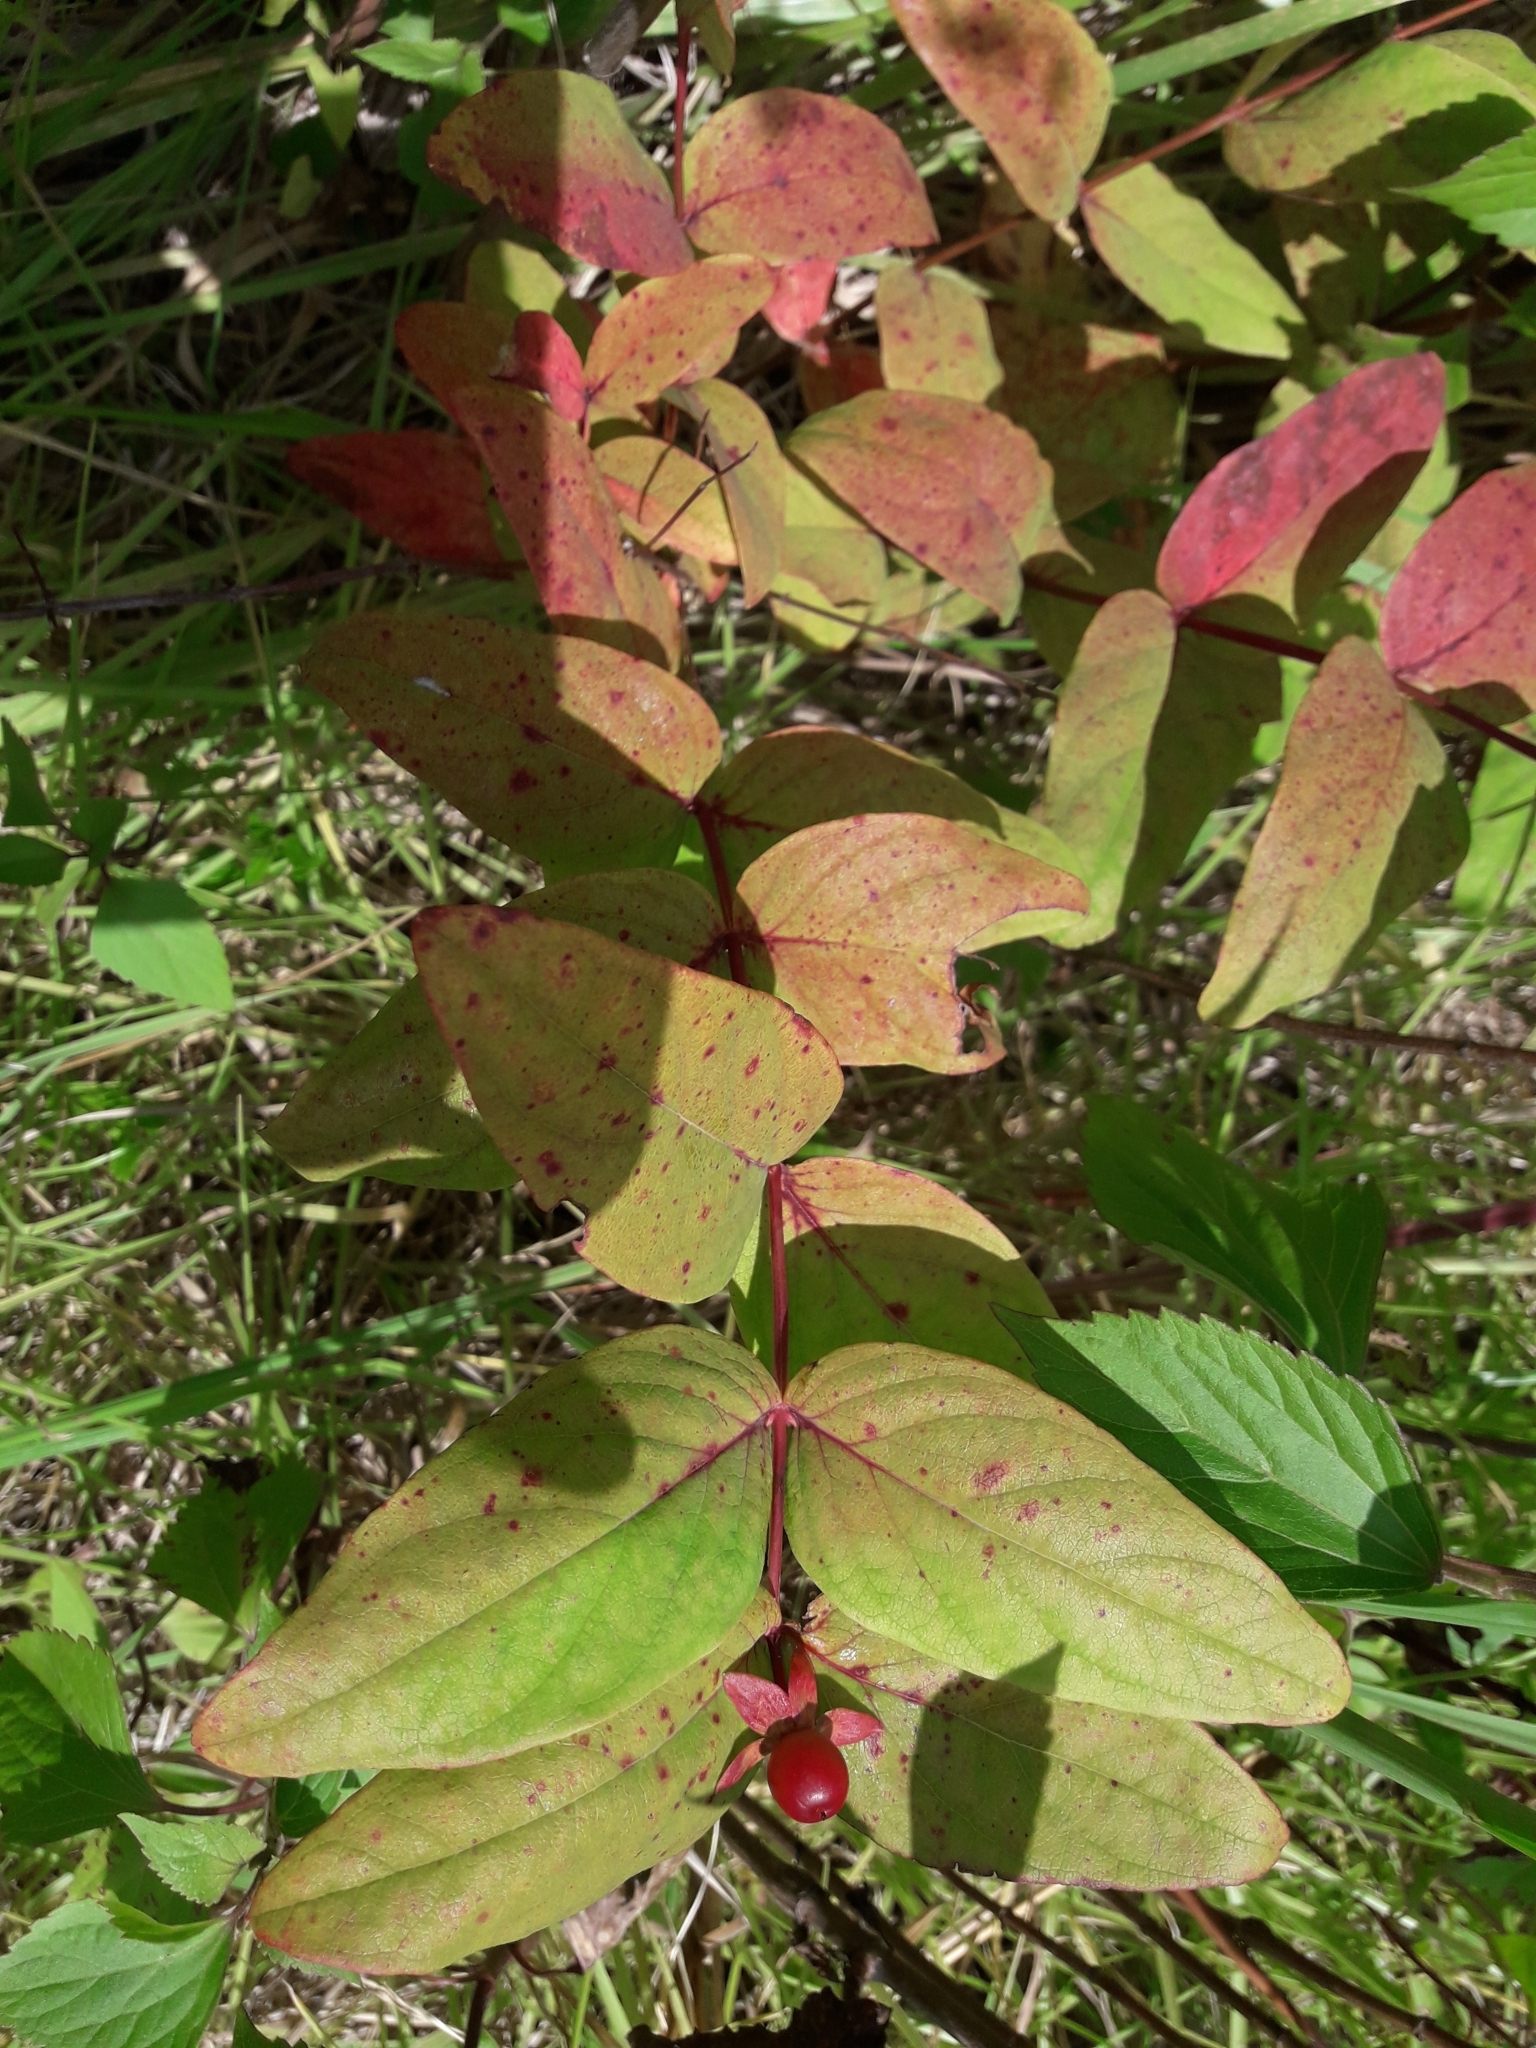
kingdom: Plantae
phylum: Tracheophyta
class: Magnoliopsida
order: Malpighiales
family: Hypericaceae
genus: Hypericum
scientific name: Hypericum androsaemum
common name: Sweet-amber
